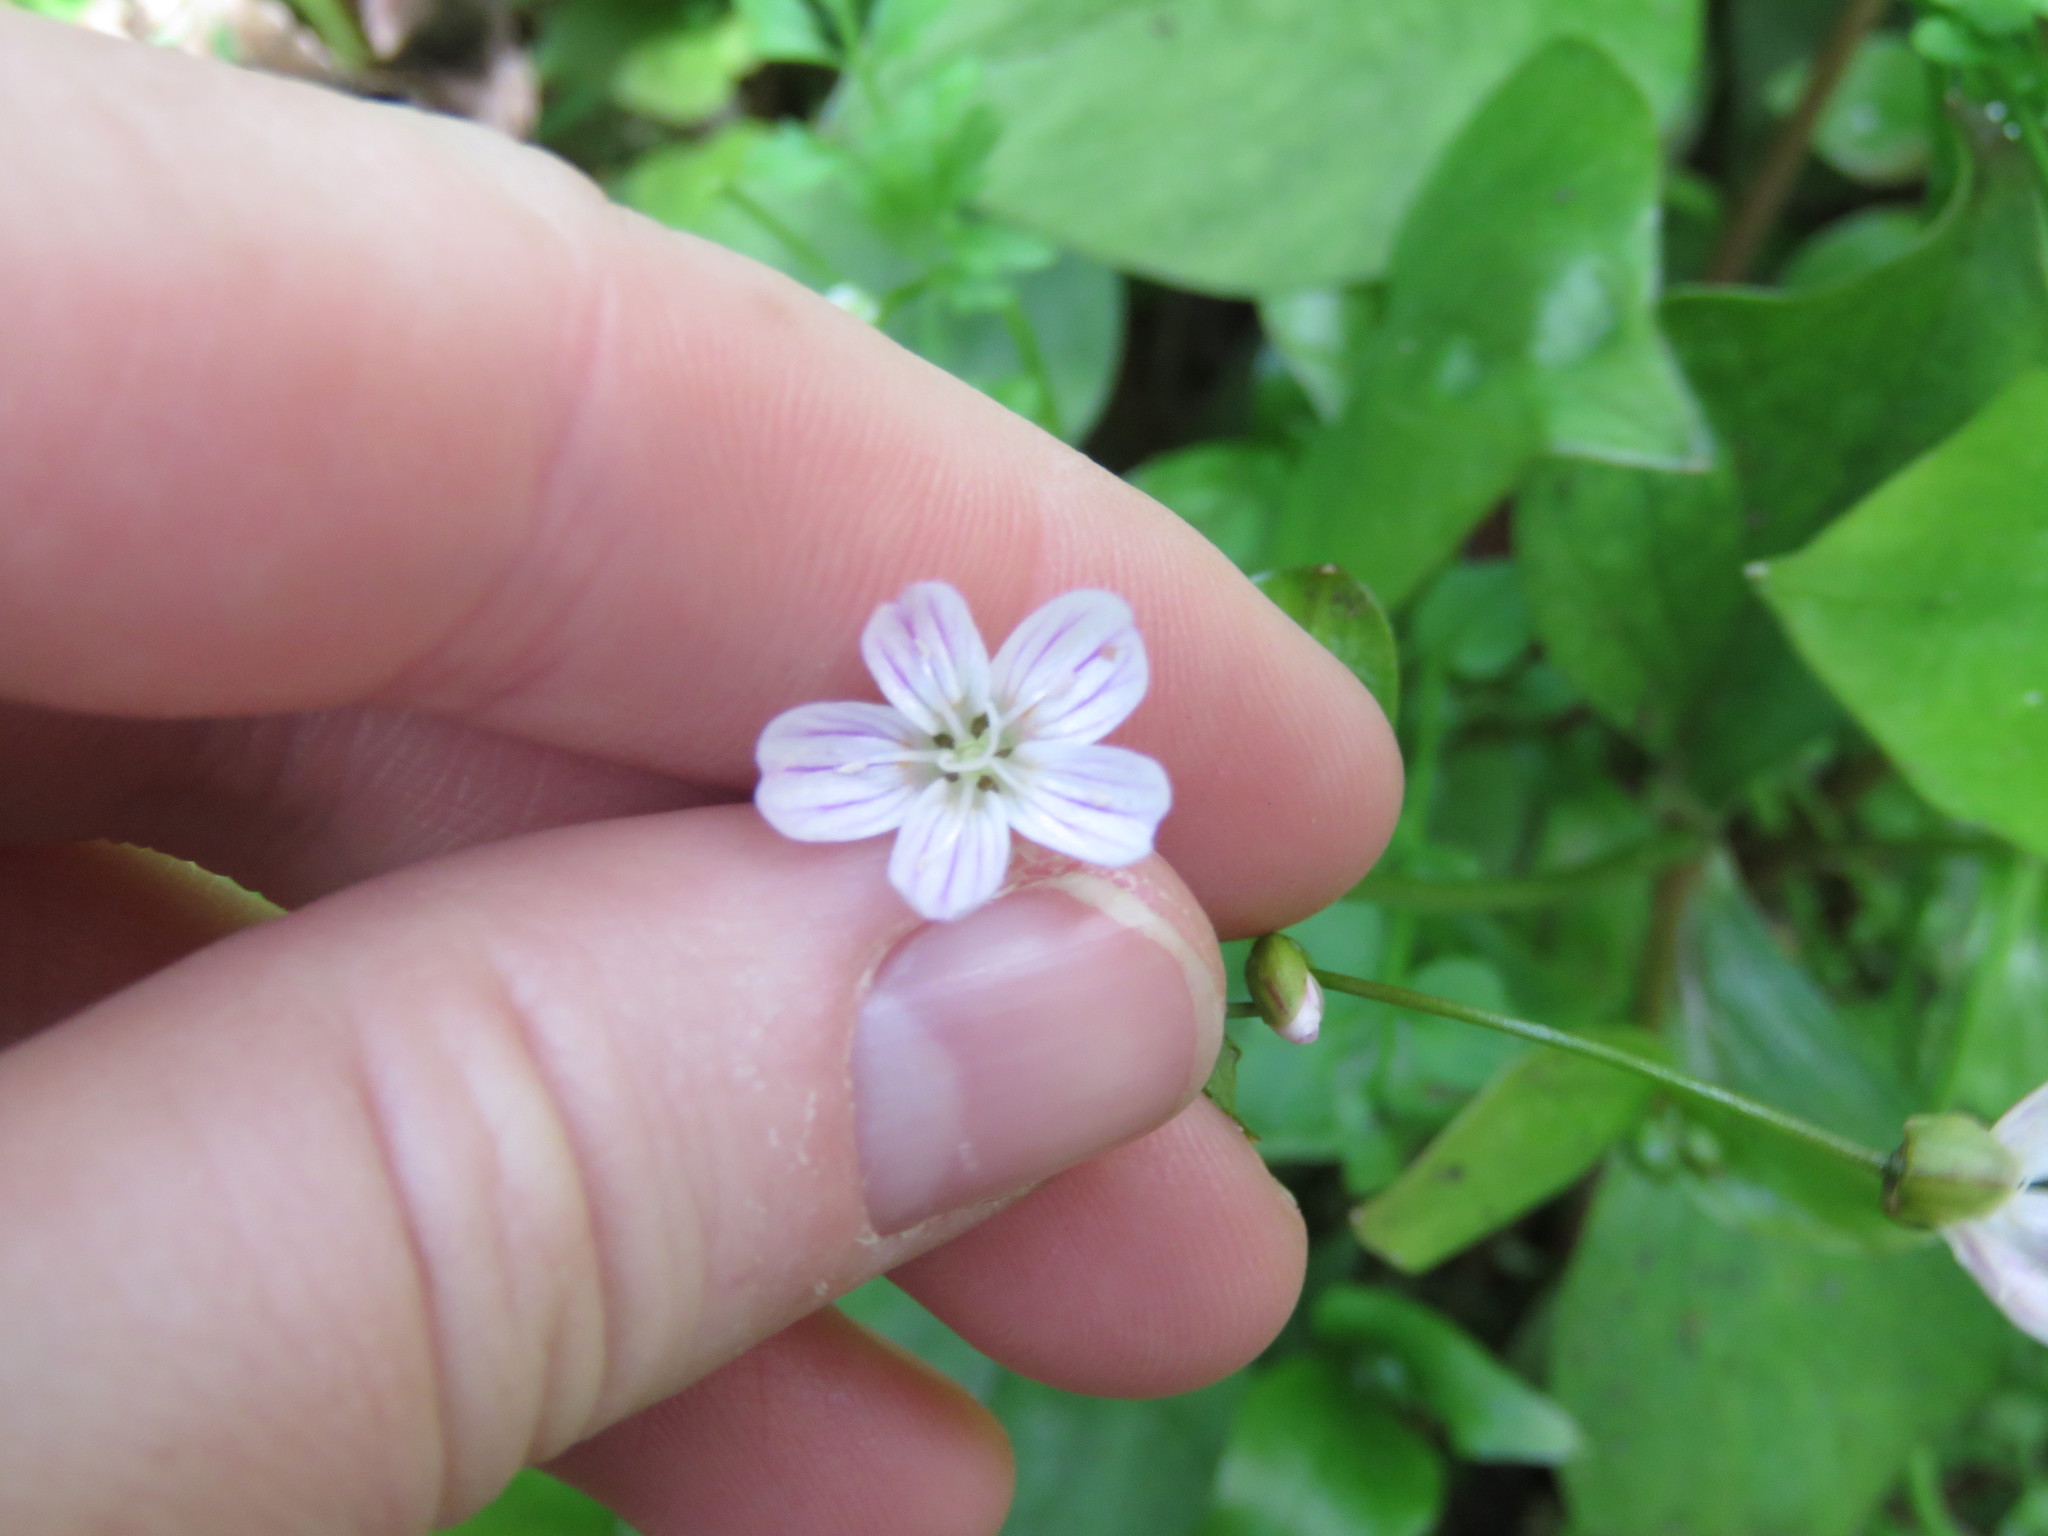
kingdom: Plantae
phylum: Tracheophyta
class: Magnoliopsida
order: Caryophyllales
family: Montiaceae
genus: Claytonia
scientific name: Claytonia sibirica
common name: Pink purslane
